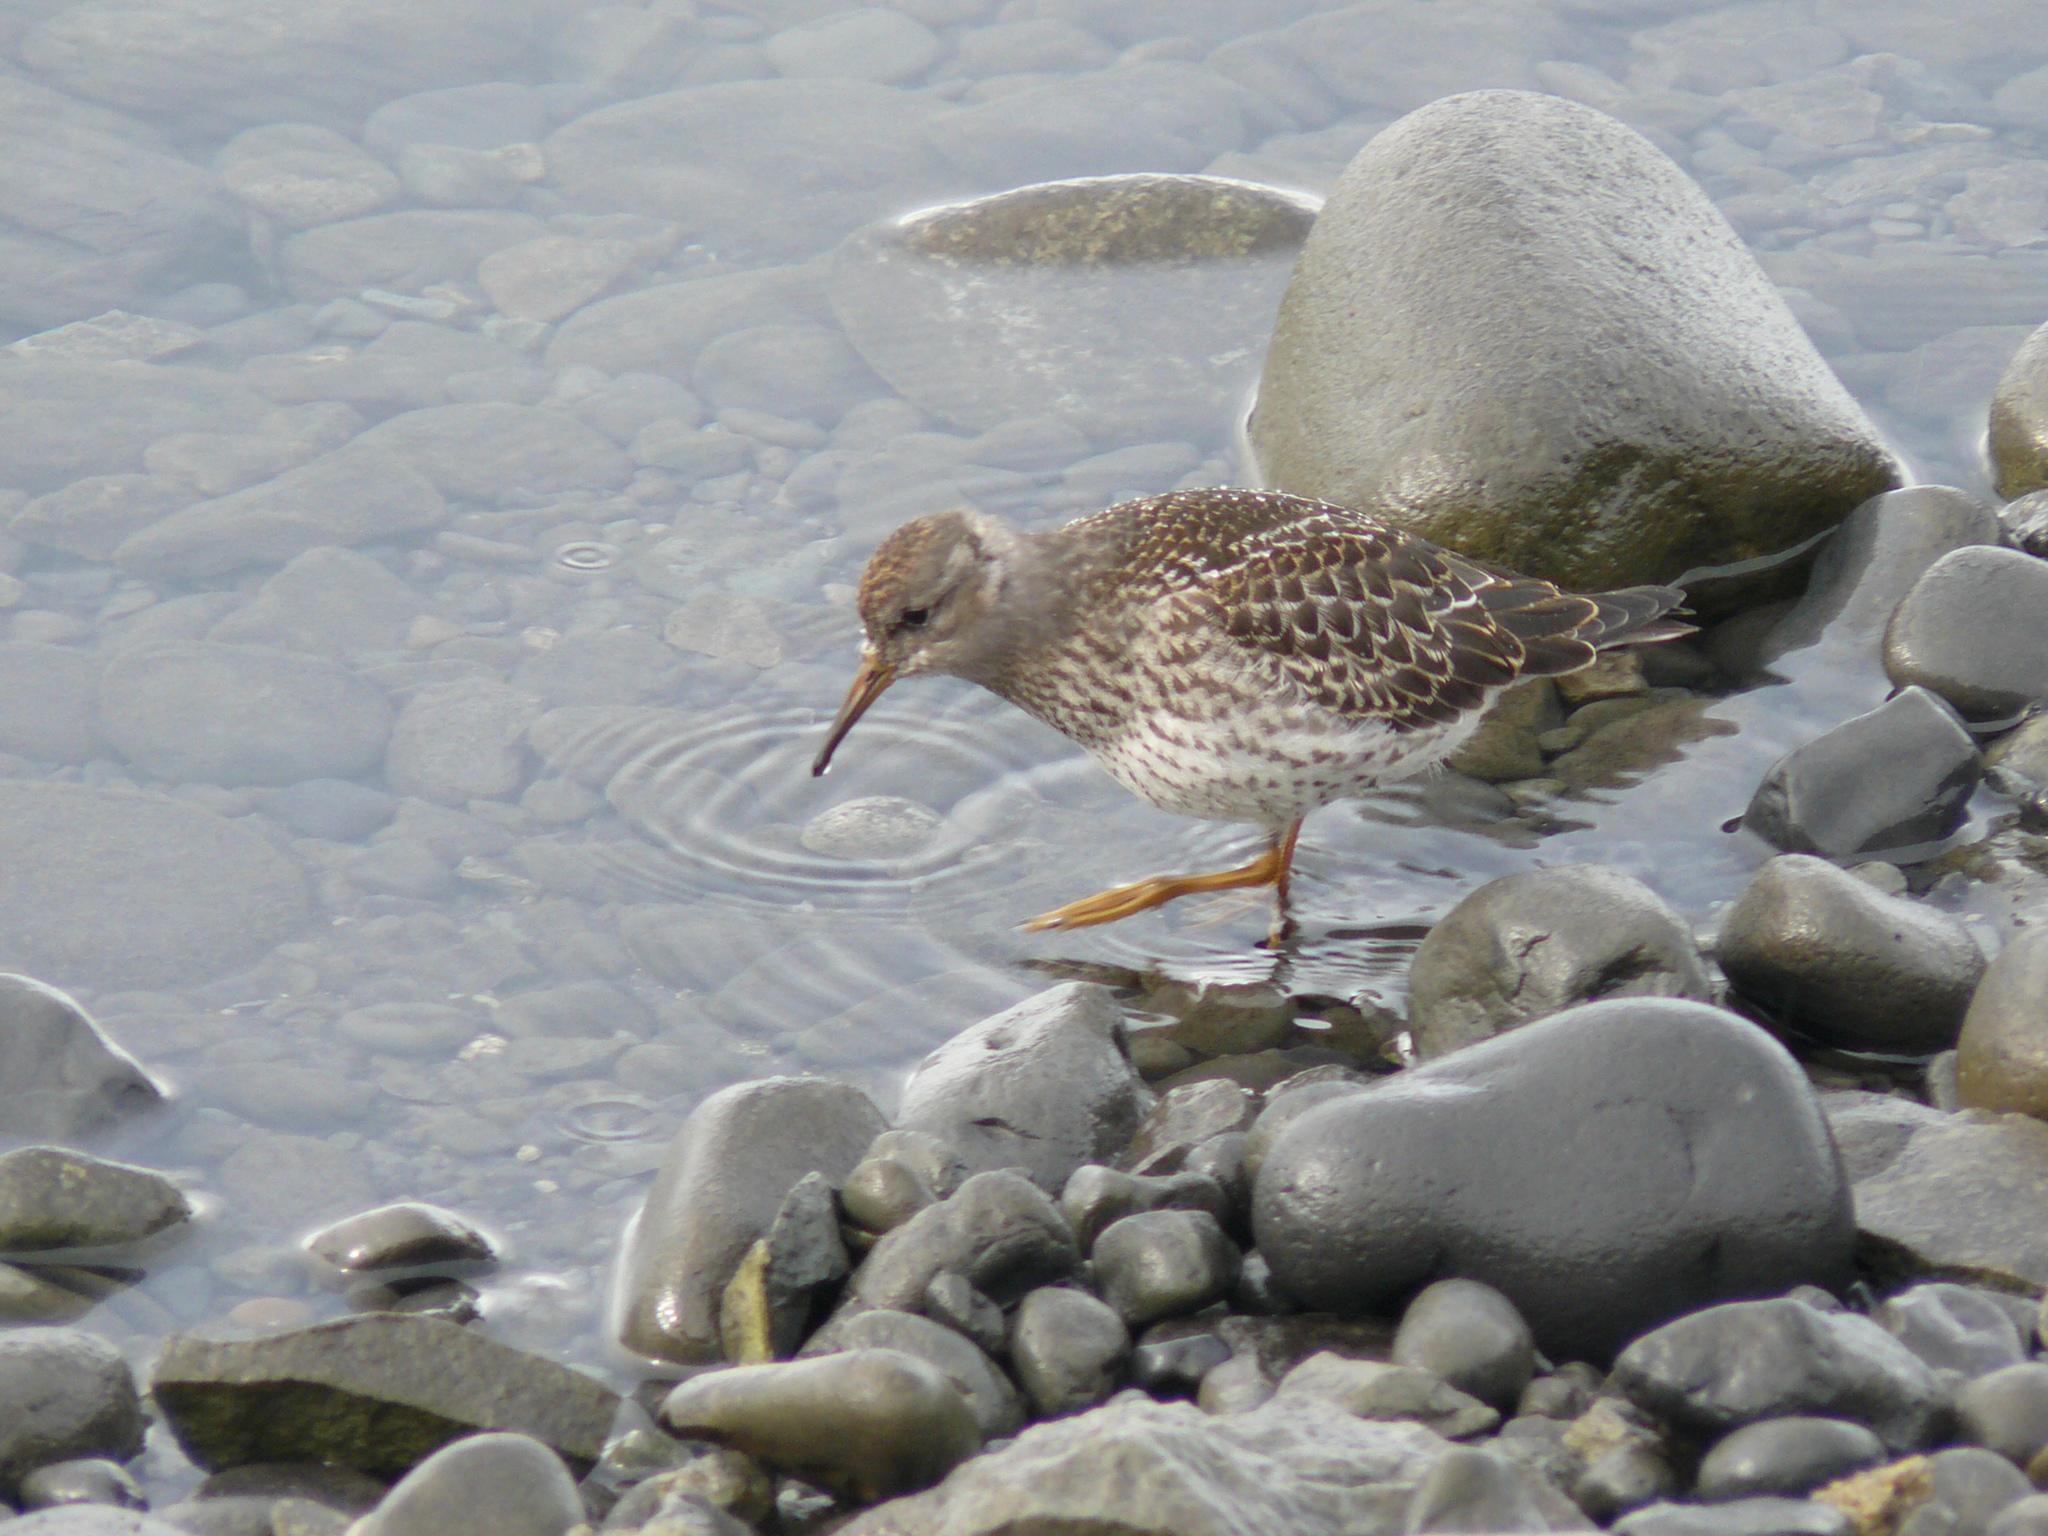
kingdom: Animalia
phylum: Chordata
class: Aves
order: Charadriiformes
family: Scolopacidae
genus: Calidris
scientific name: Calidris maritima
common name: Purple sandpiper
